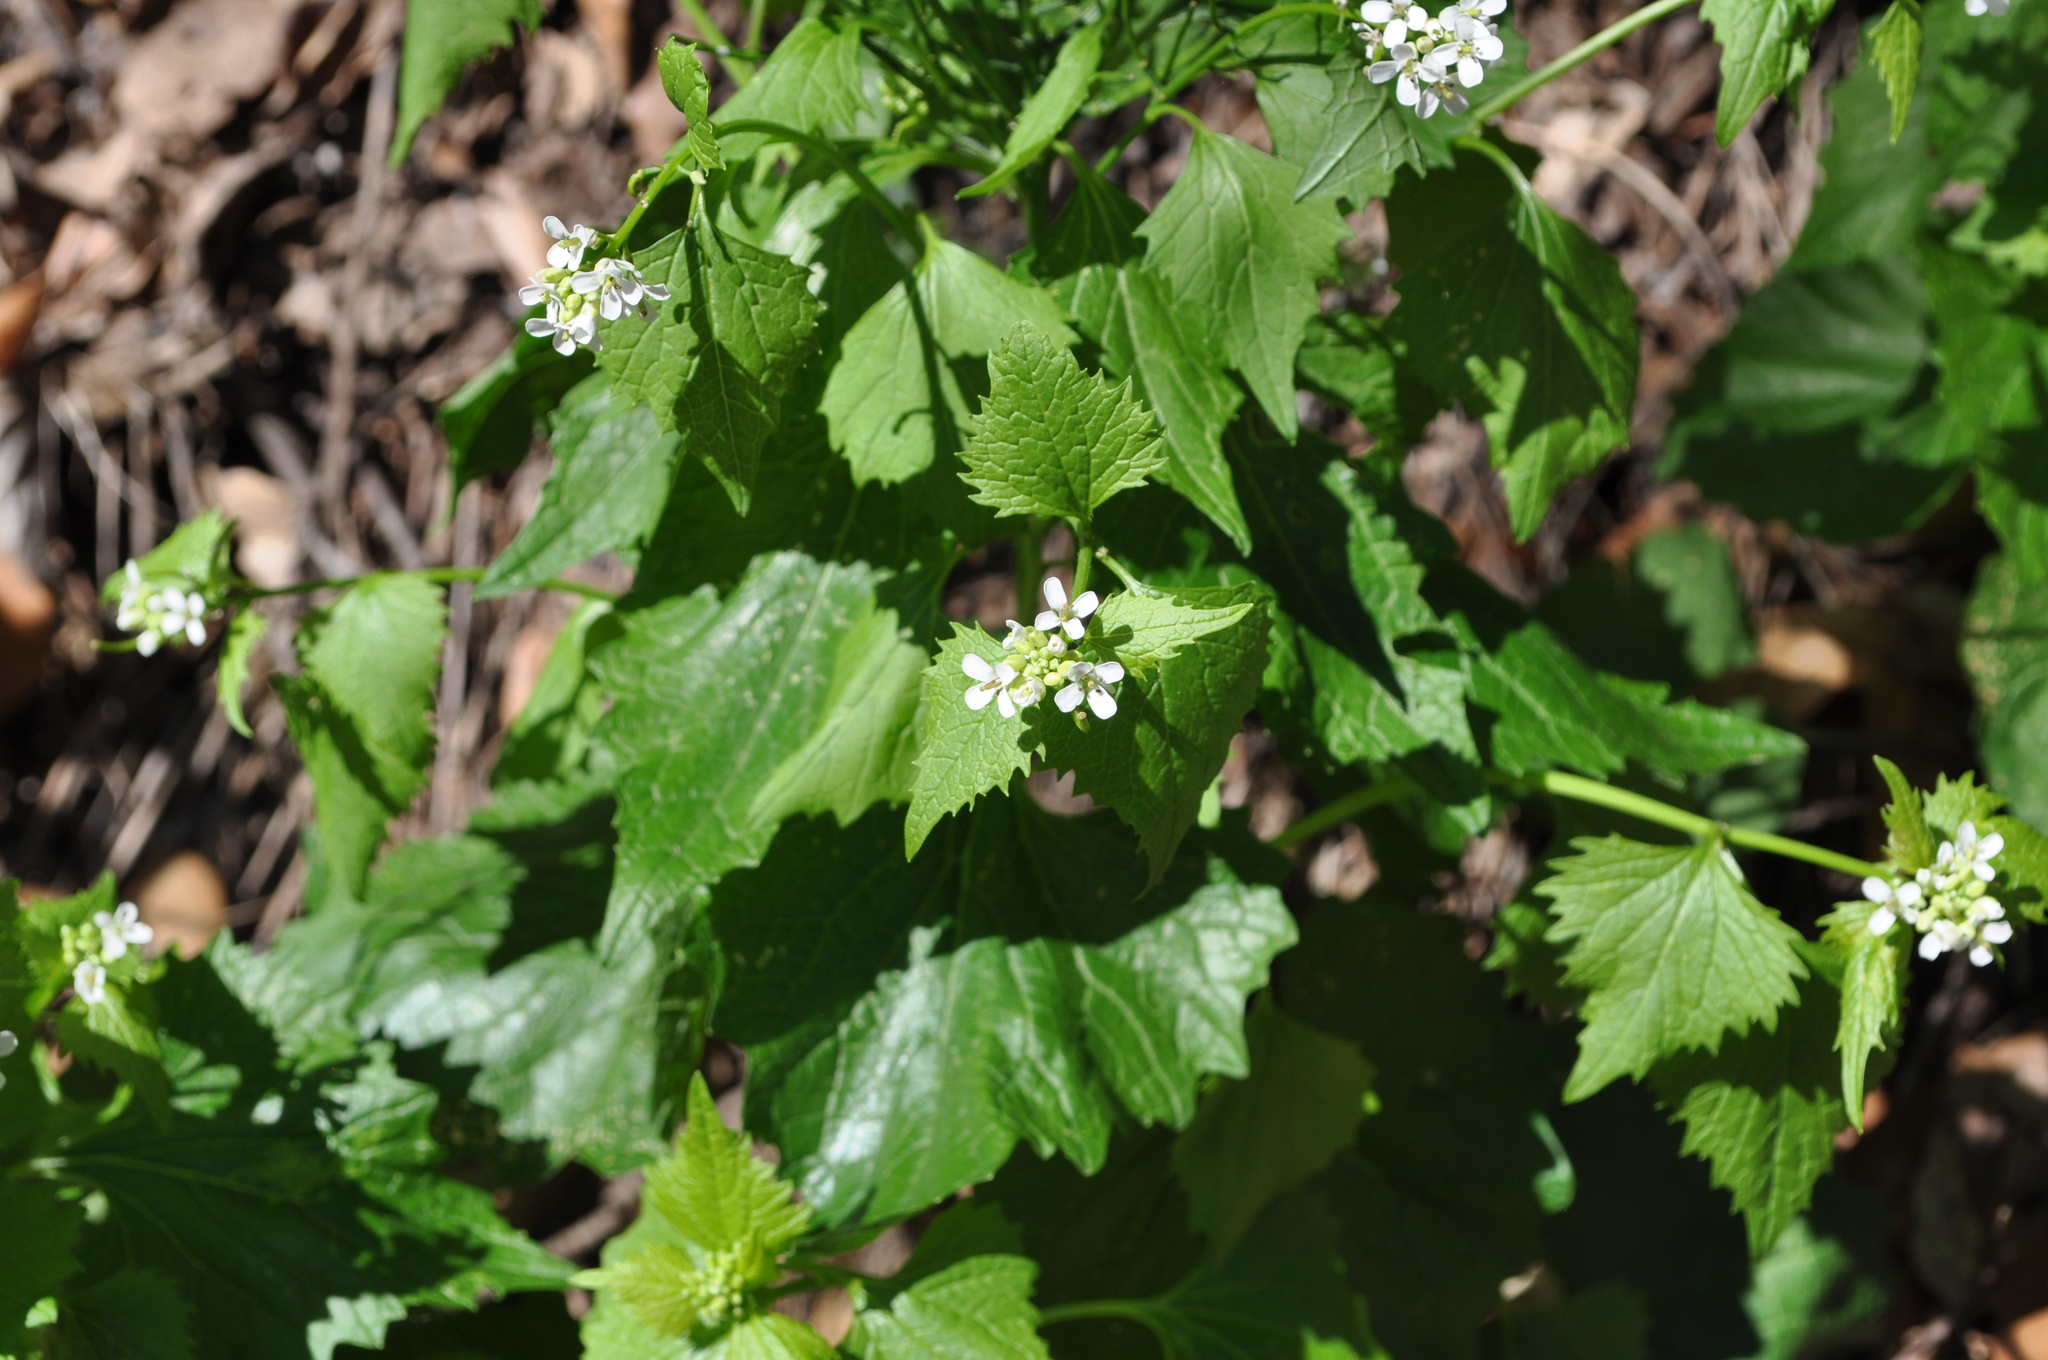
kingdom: Plantae
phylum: Tracheophyta
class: Magnoliopsida
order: Brassicales
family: Brassicaceae
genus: Alliaria
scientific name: Alliaria petiolata
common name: Garlic mustard
